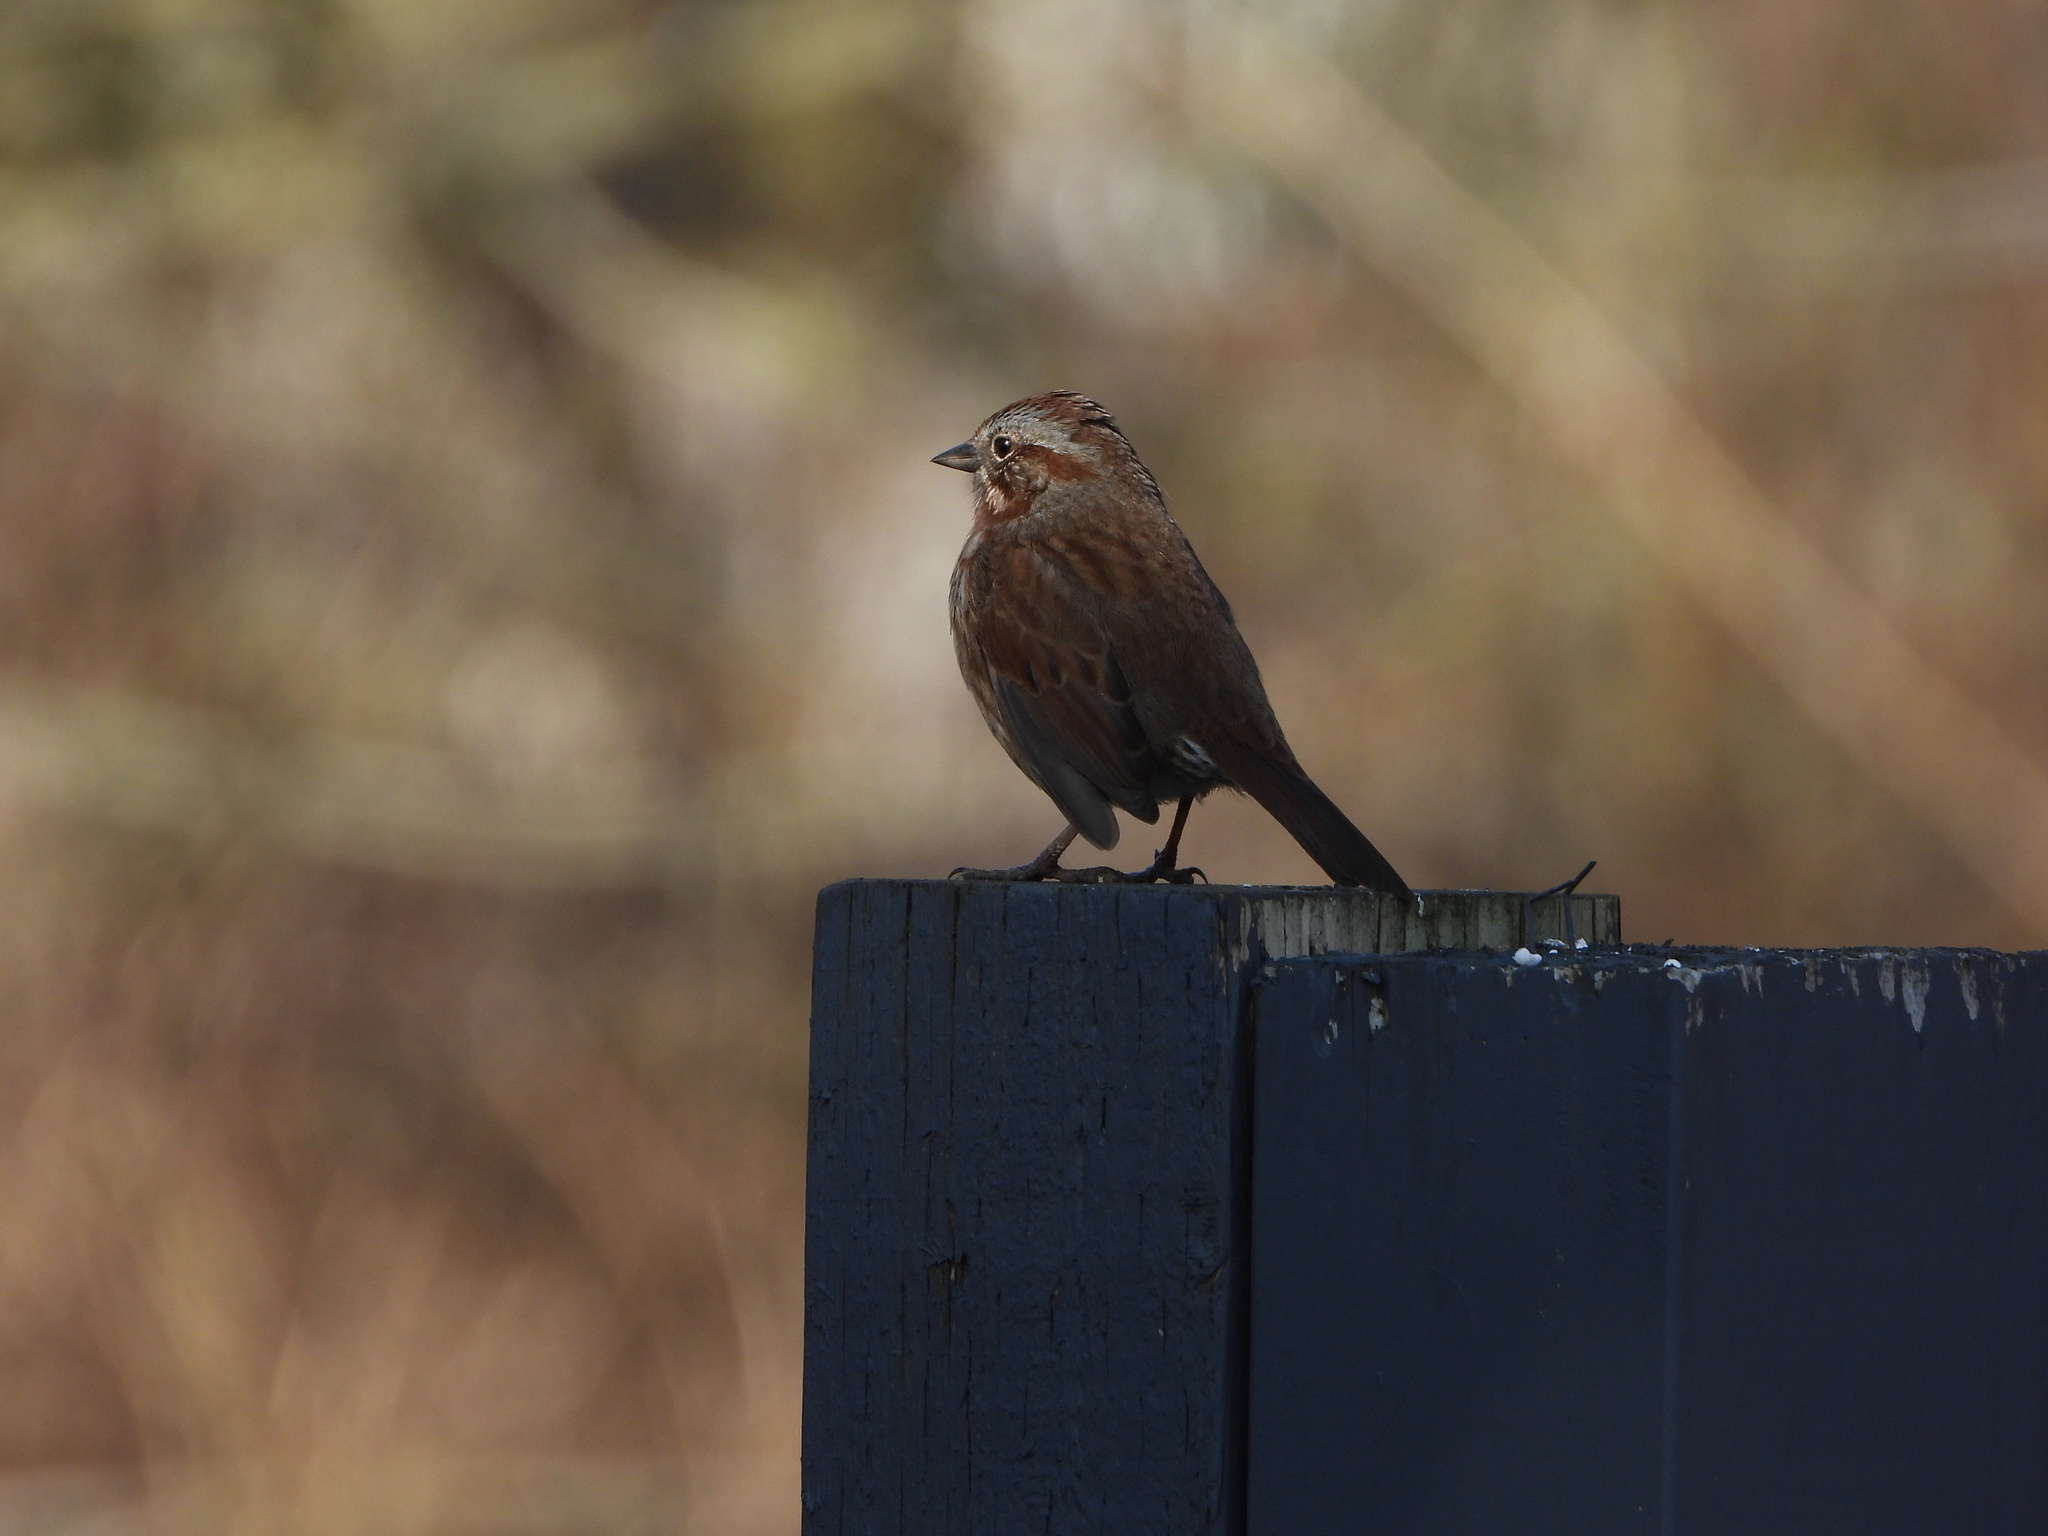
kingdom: Animalia
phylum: Chordata
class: Aves
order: Passeriformes
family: Passerellidae
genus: Melospiza
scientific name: Melospiza melodia
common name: Song sparrow
